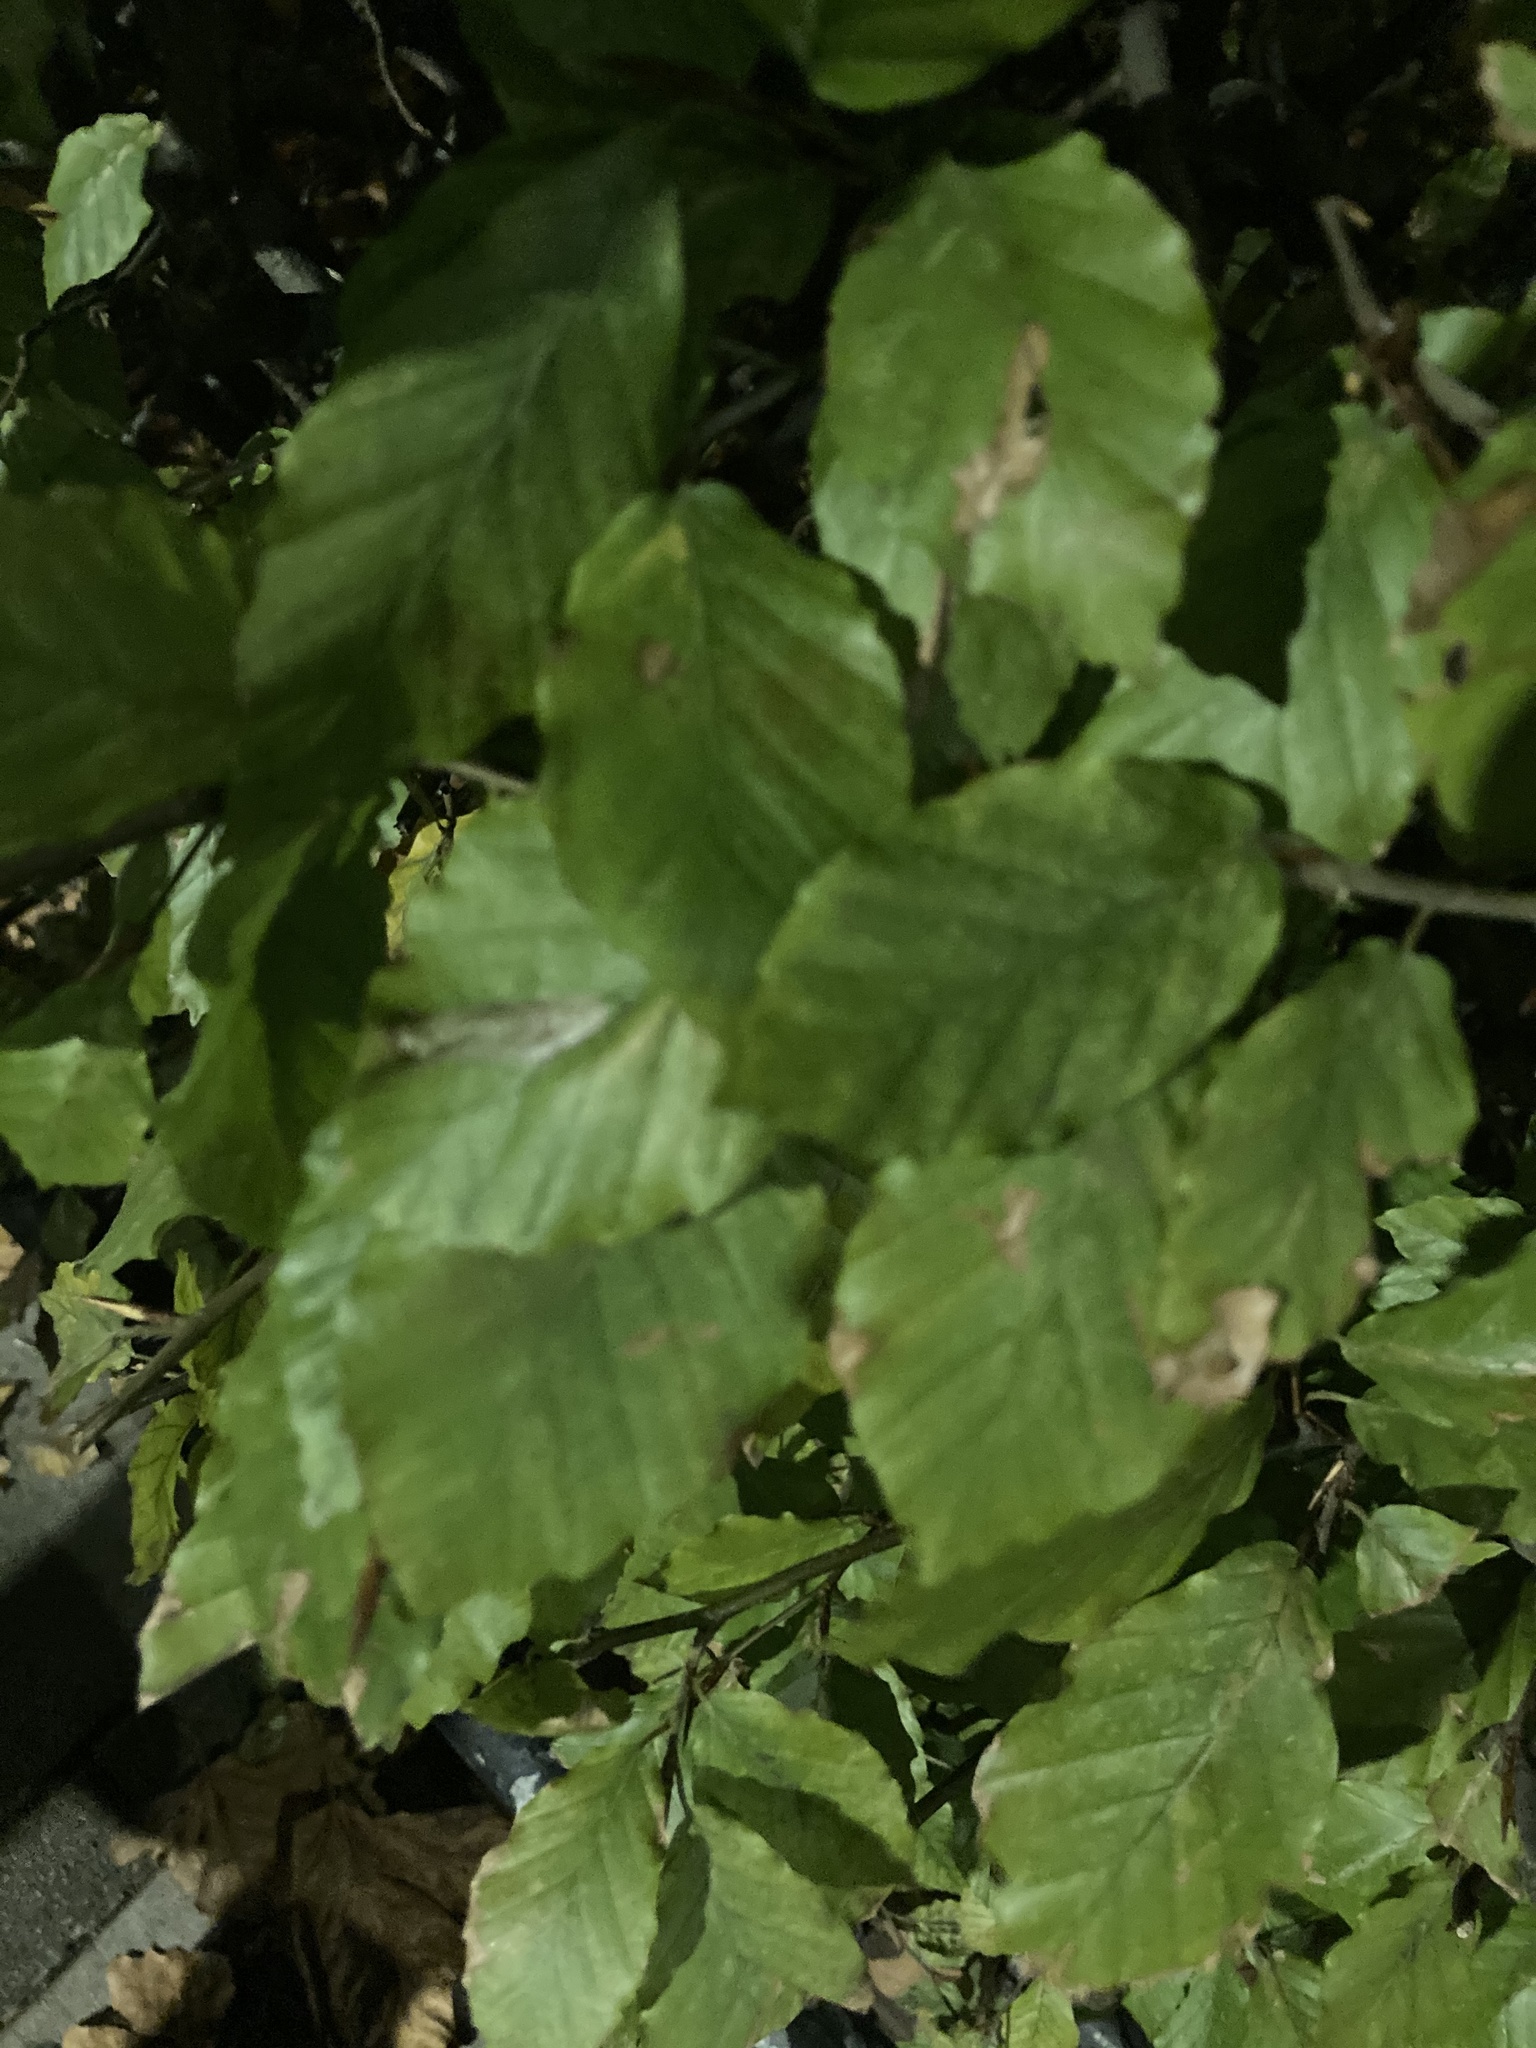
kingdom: Plantae
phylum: Tracheophyta
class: Magnoliopsida
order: Fagales
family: Fagaceae
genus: Fagus
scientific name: Fagus sylvatica
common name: Beech
